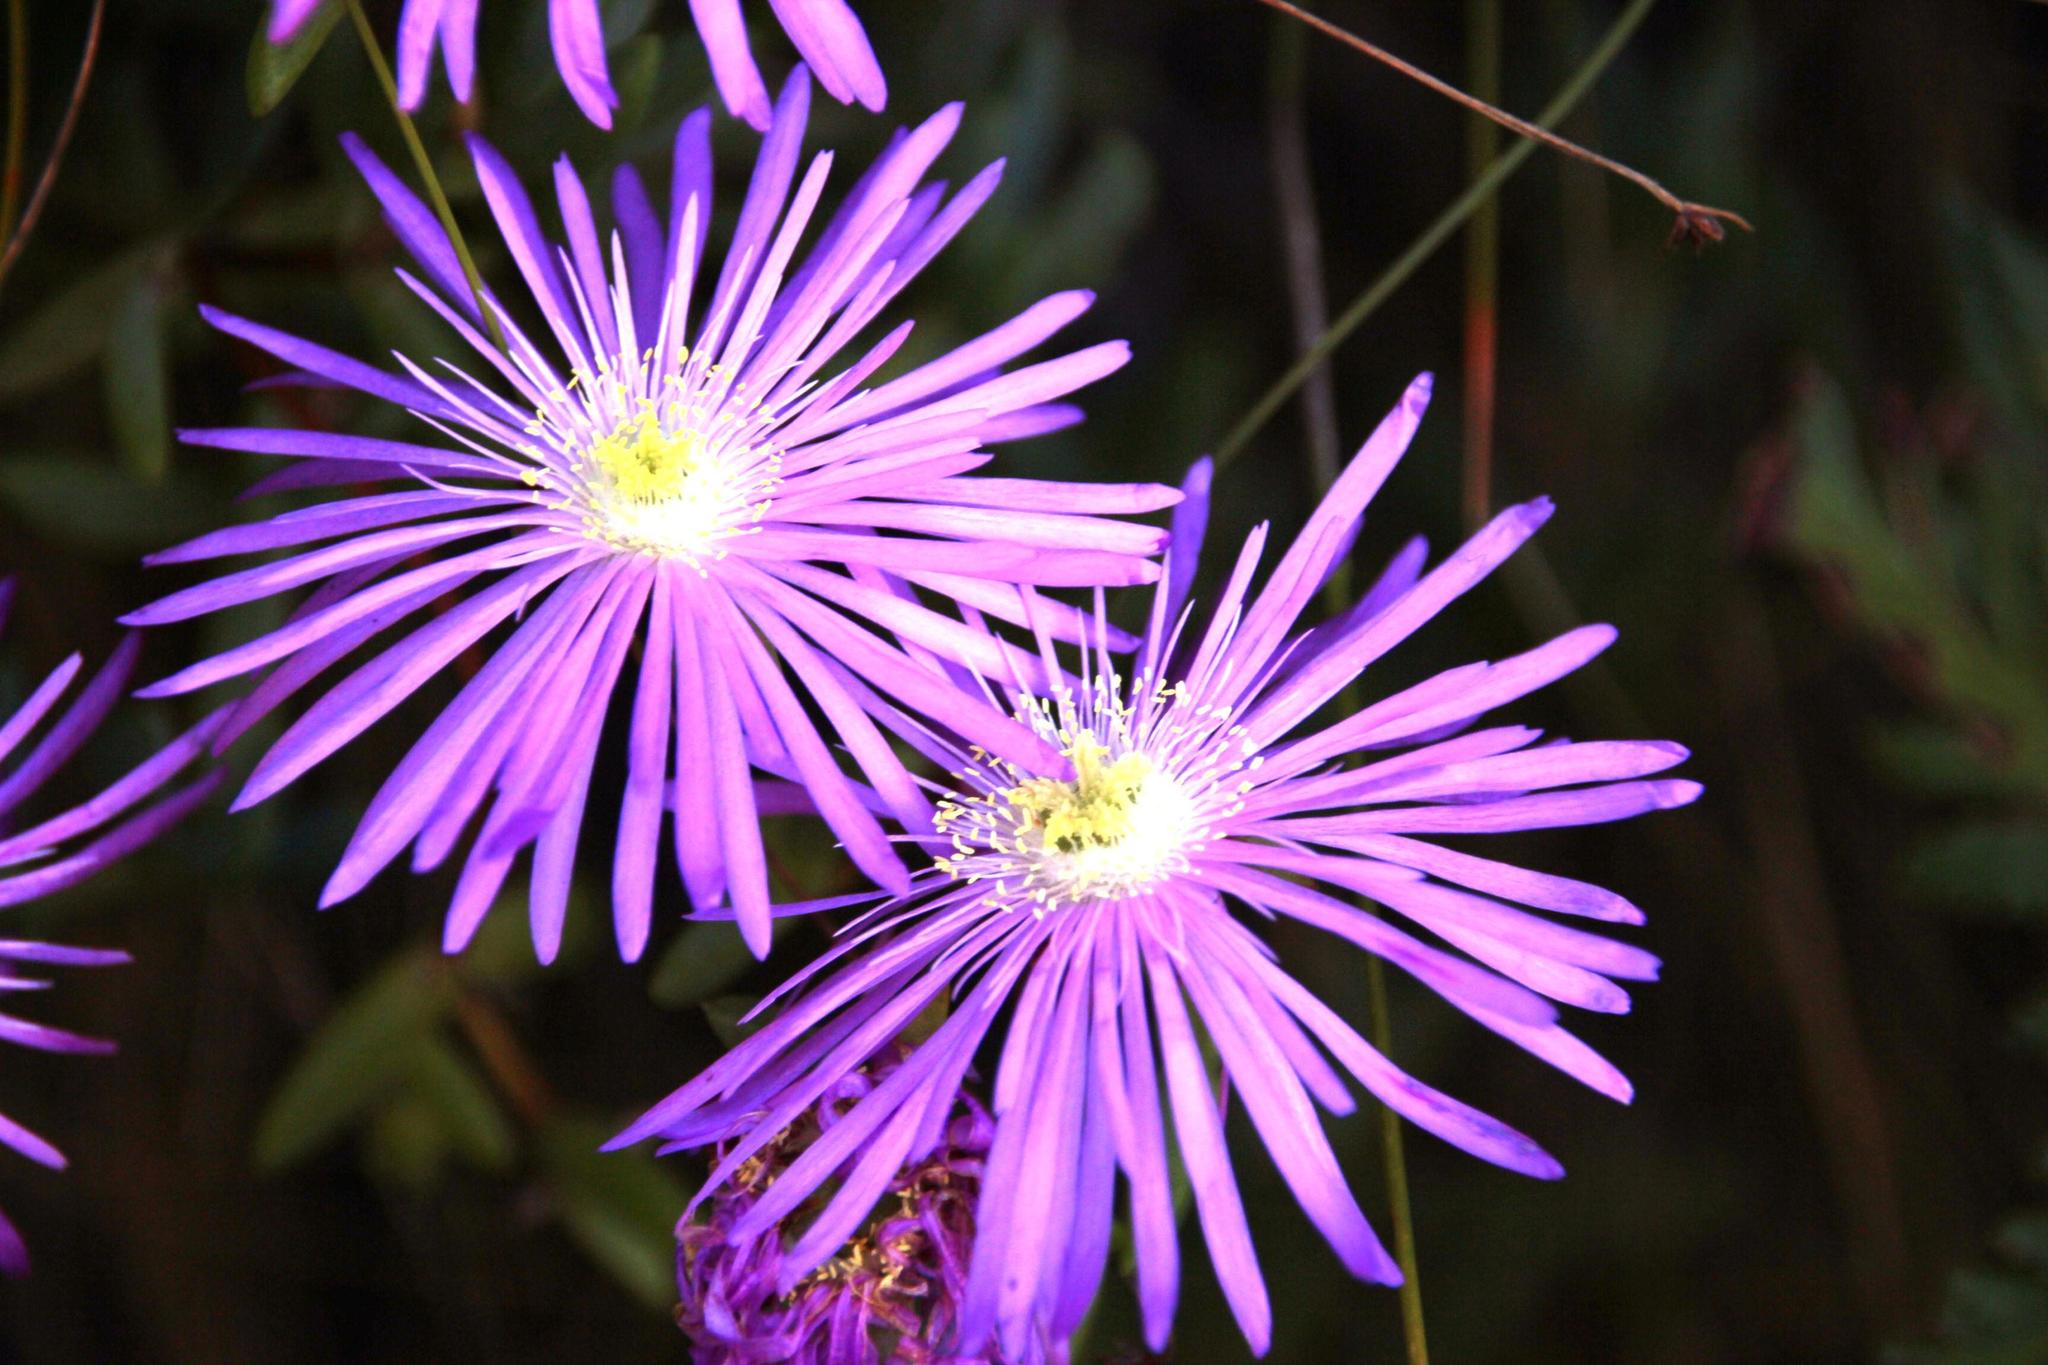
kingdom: Plantae
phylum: Tracheophyta
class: Magnoliopsida
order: Caryophyllales
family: Aizoaceae
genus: Oscularia
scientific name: Oscularia falciformis
